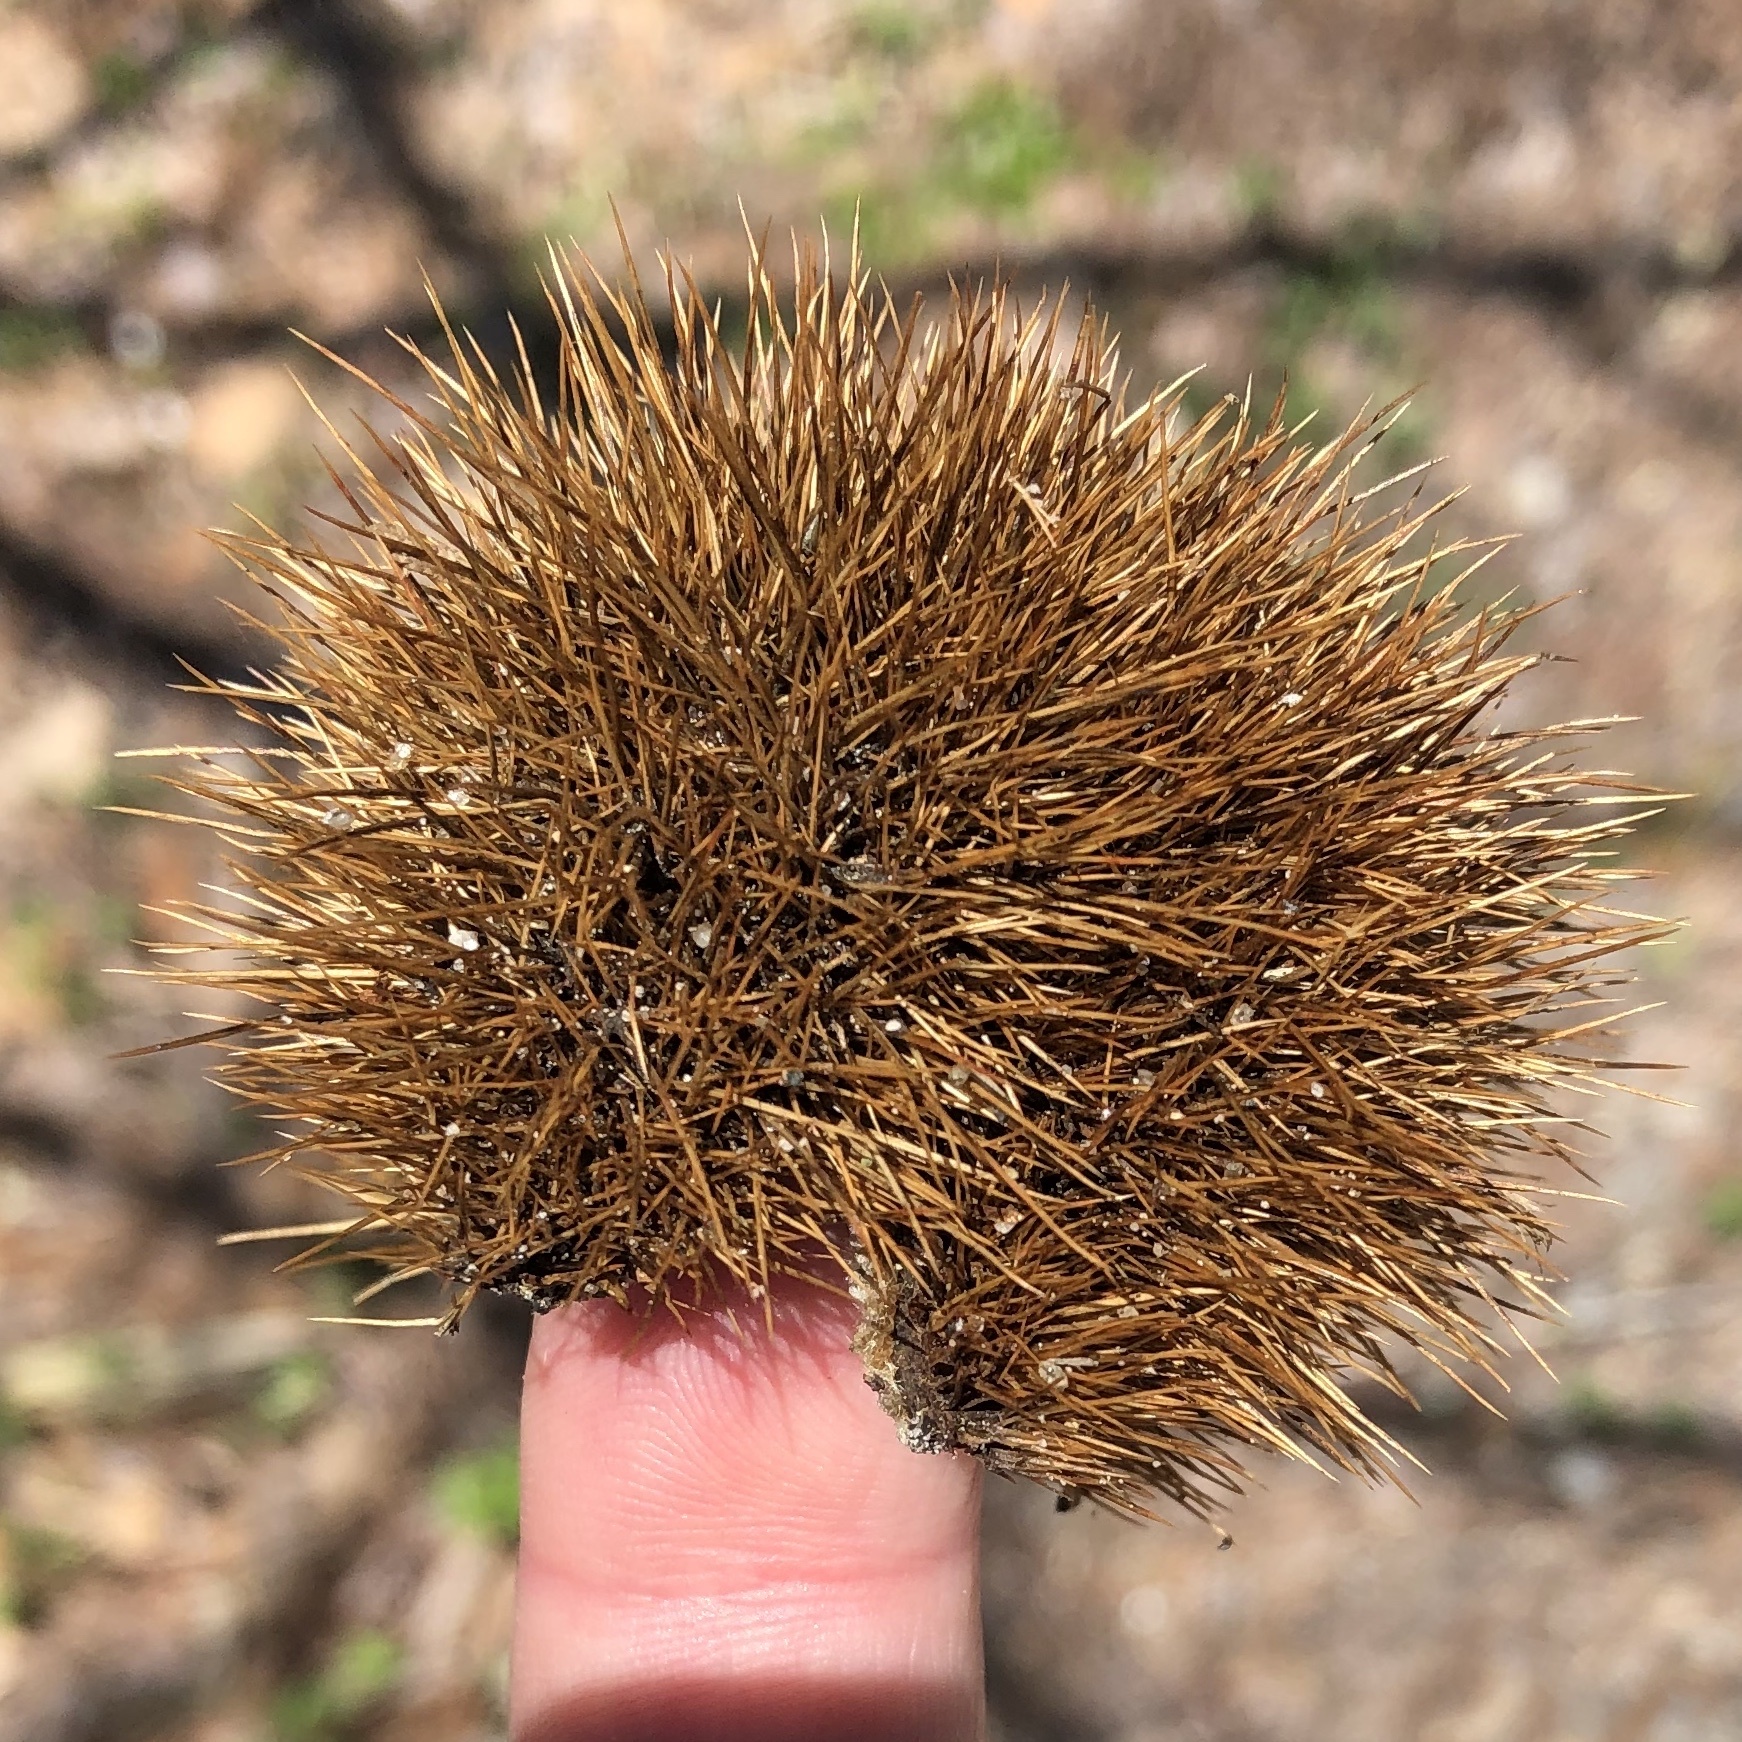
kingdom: Plantae
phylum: Tracheophyta
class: Magnoliopsida
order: Fagales
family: Fagaceae
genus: Castanea
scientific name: Castanea dentata
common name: American chestnut
